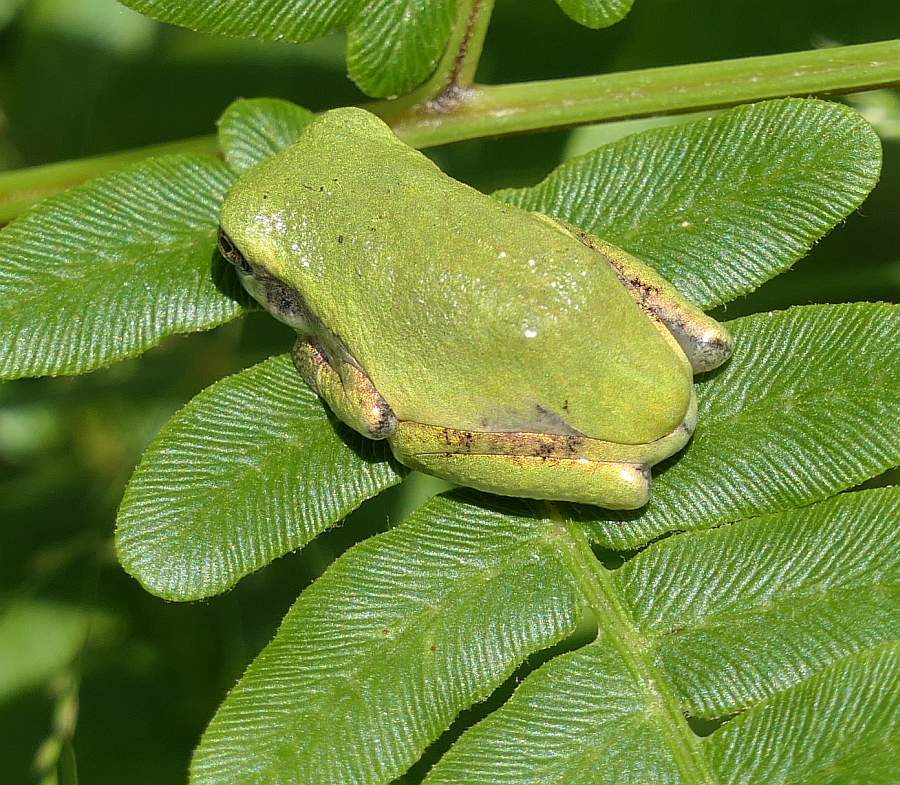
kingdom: Animalia
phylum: Chordata
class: Amphibia
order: Anura
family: Hylidae
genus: Dryophytes
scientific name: Dryophytes versicolor
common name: Gray treefrog
